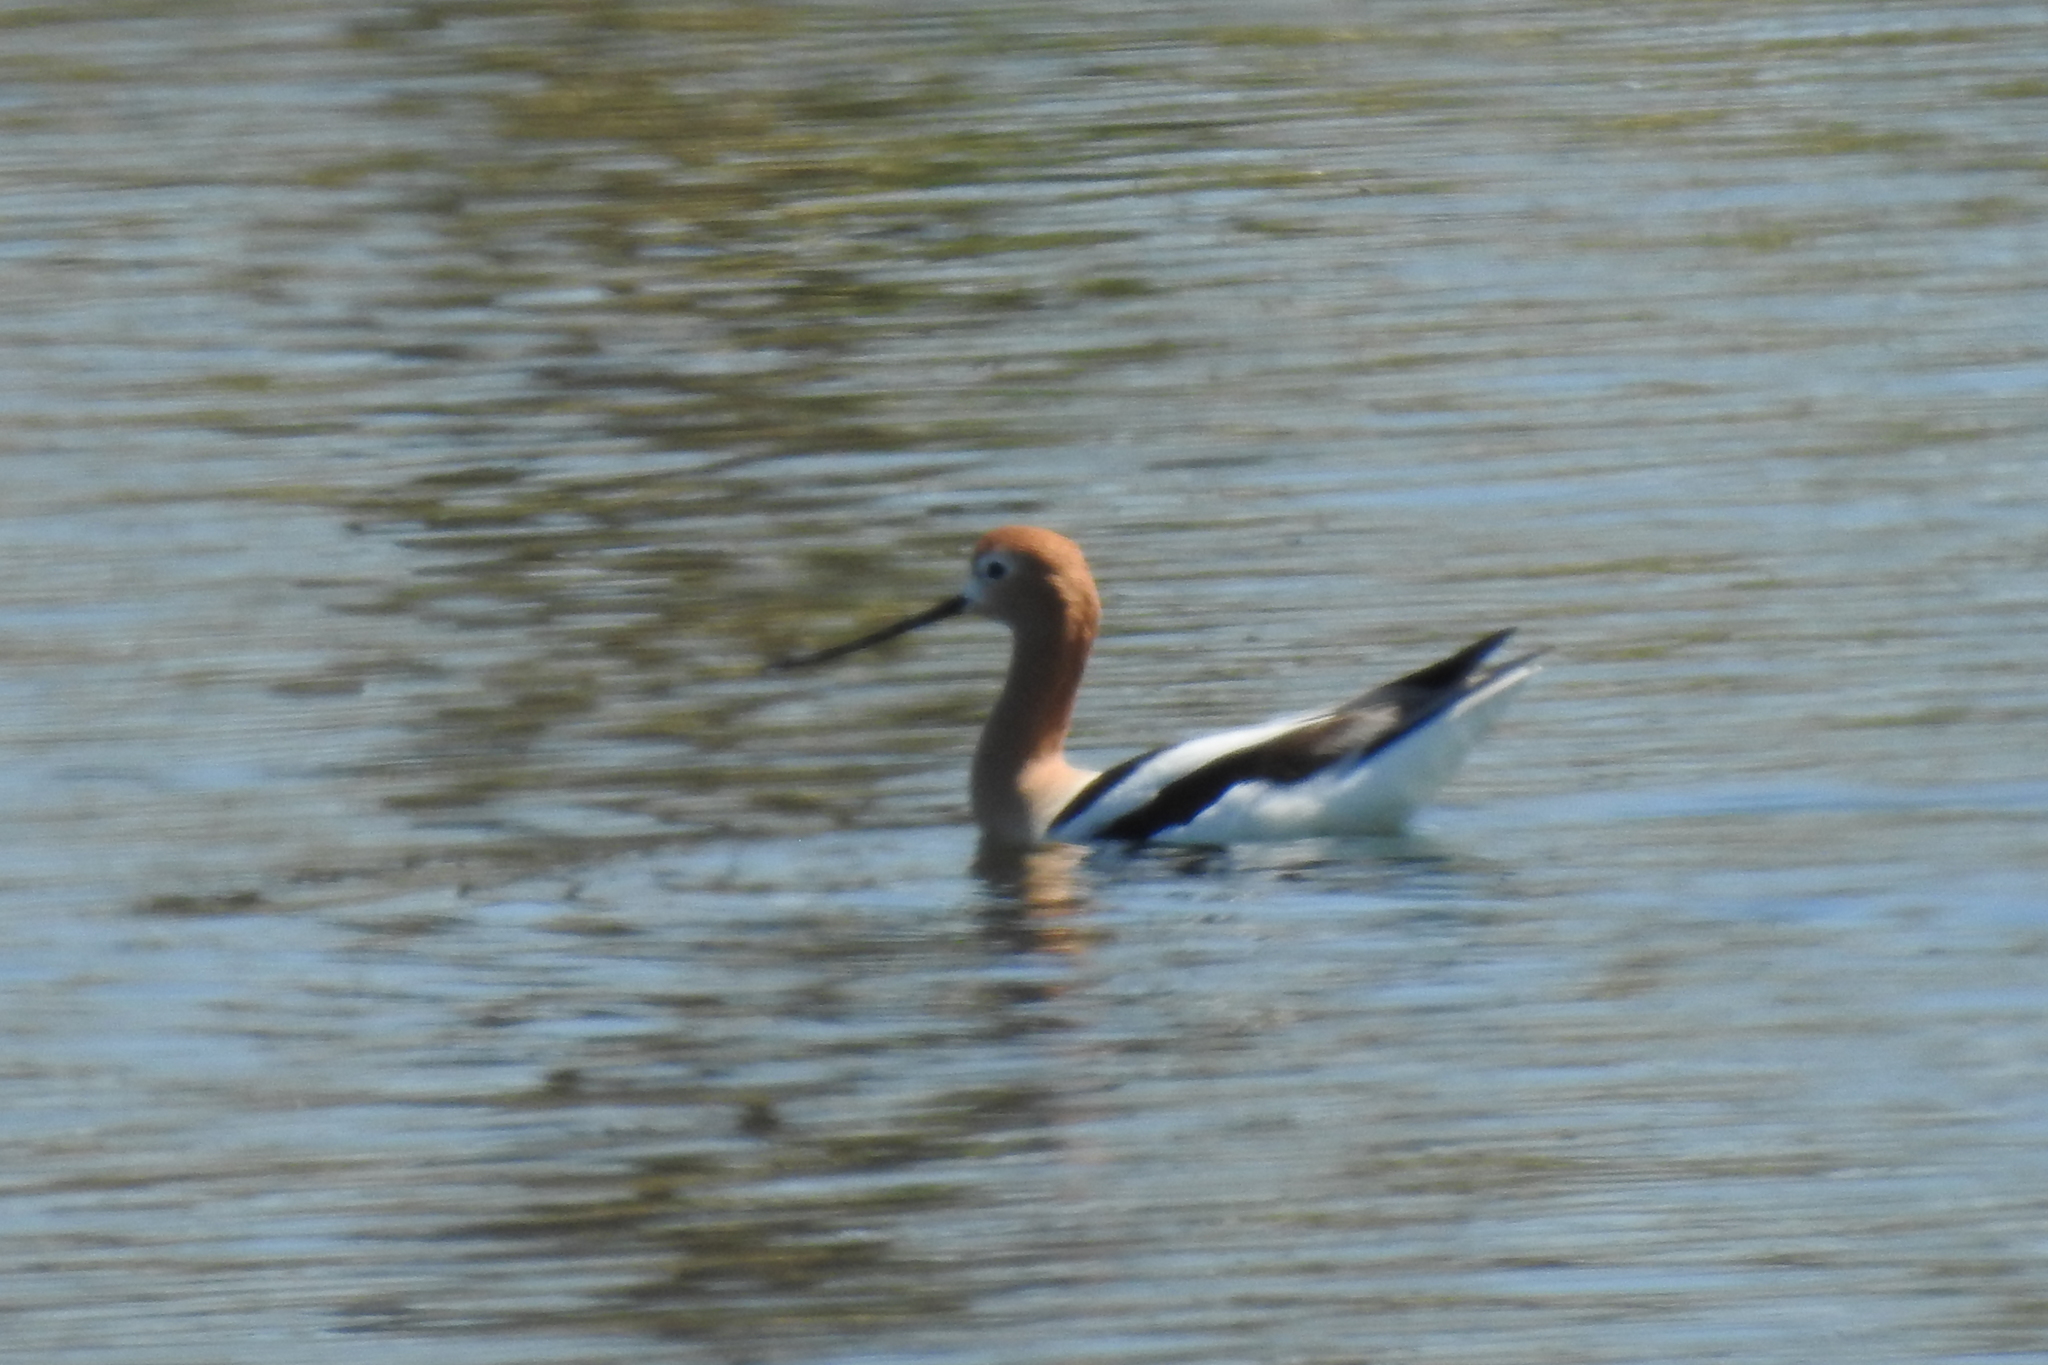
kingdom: Animalia
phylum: Chordata
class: Aves
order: Charadriiformes
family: Recurvirostridae
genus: Recurvirostra
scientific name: Recurvirostra americana
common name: American avocet
